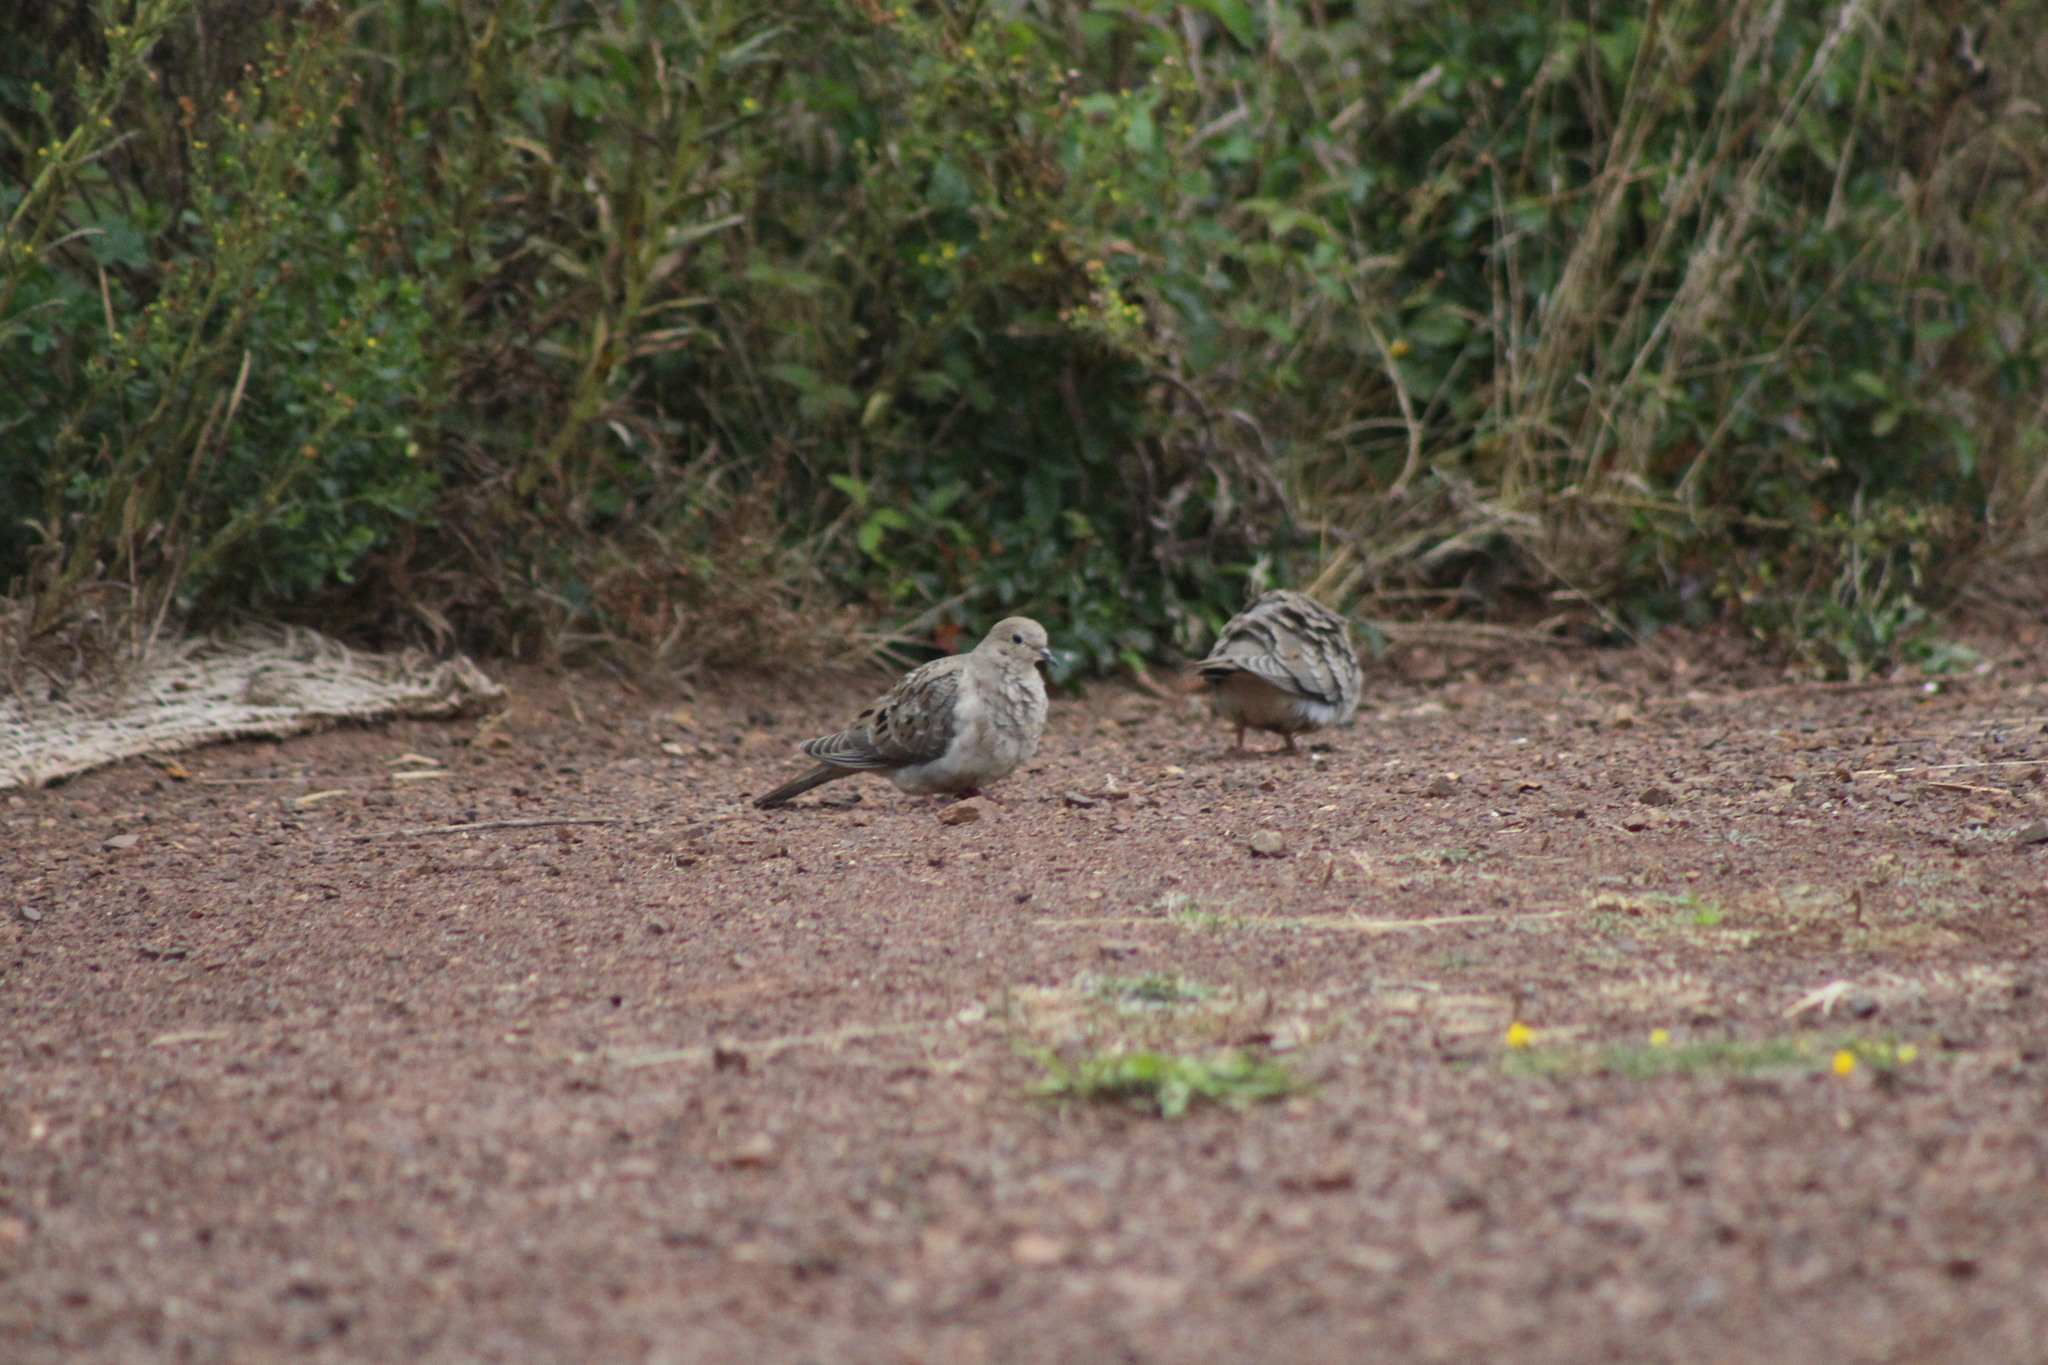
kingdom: Animalia
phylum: Chordata
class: Aves
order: Columbiformes
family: Columbidae
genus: Zenaida
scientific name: Zenaida macroura
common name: Mourning dove
